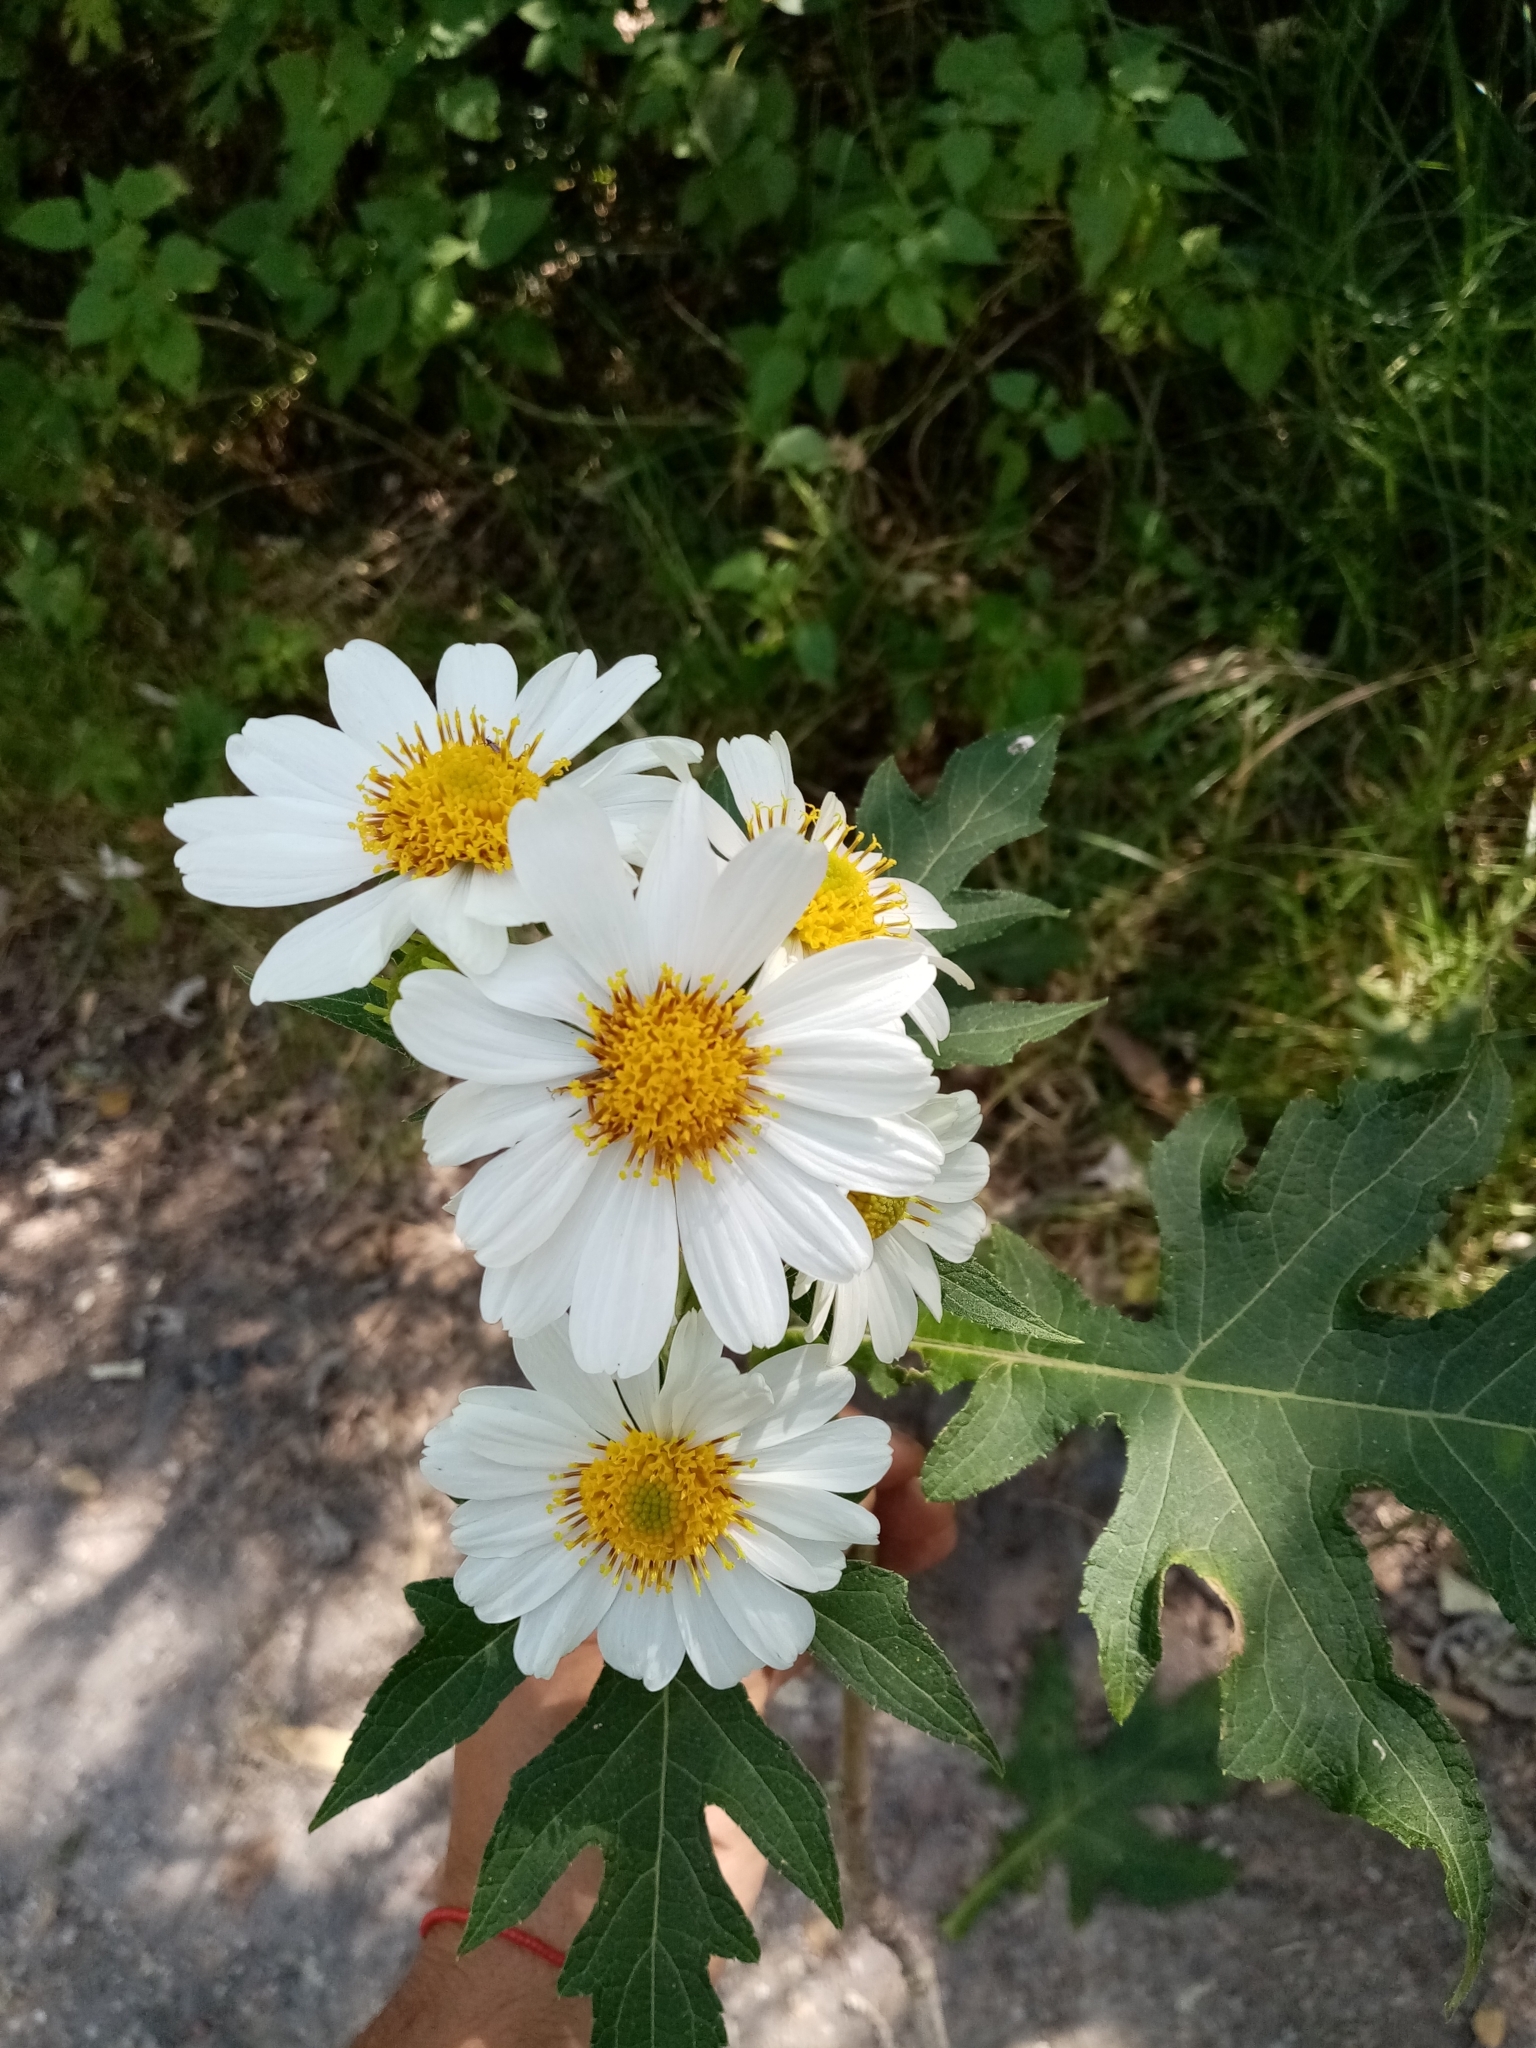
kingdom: Plantae
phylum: Tracheophyta
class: Magnoliopsida
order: Asterales
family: Asteraceae
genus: Montanoa
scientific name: Montanoa grandiflora
